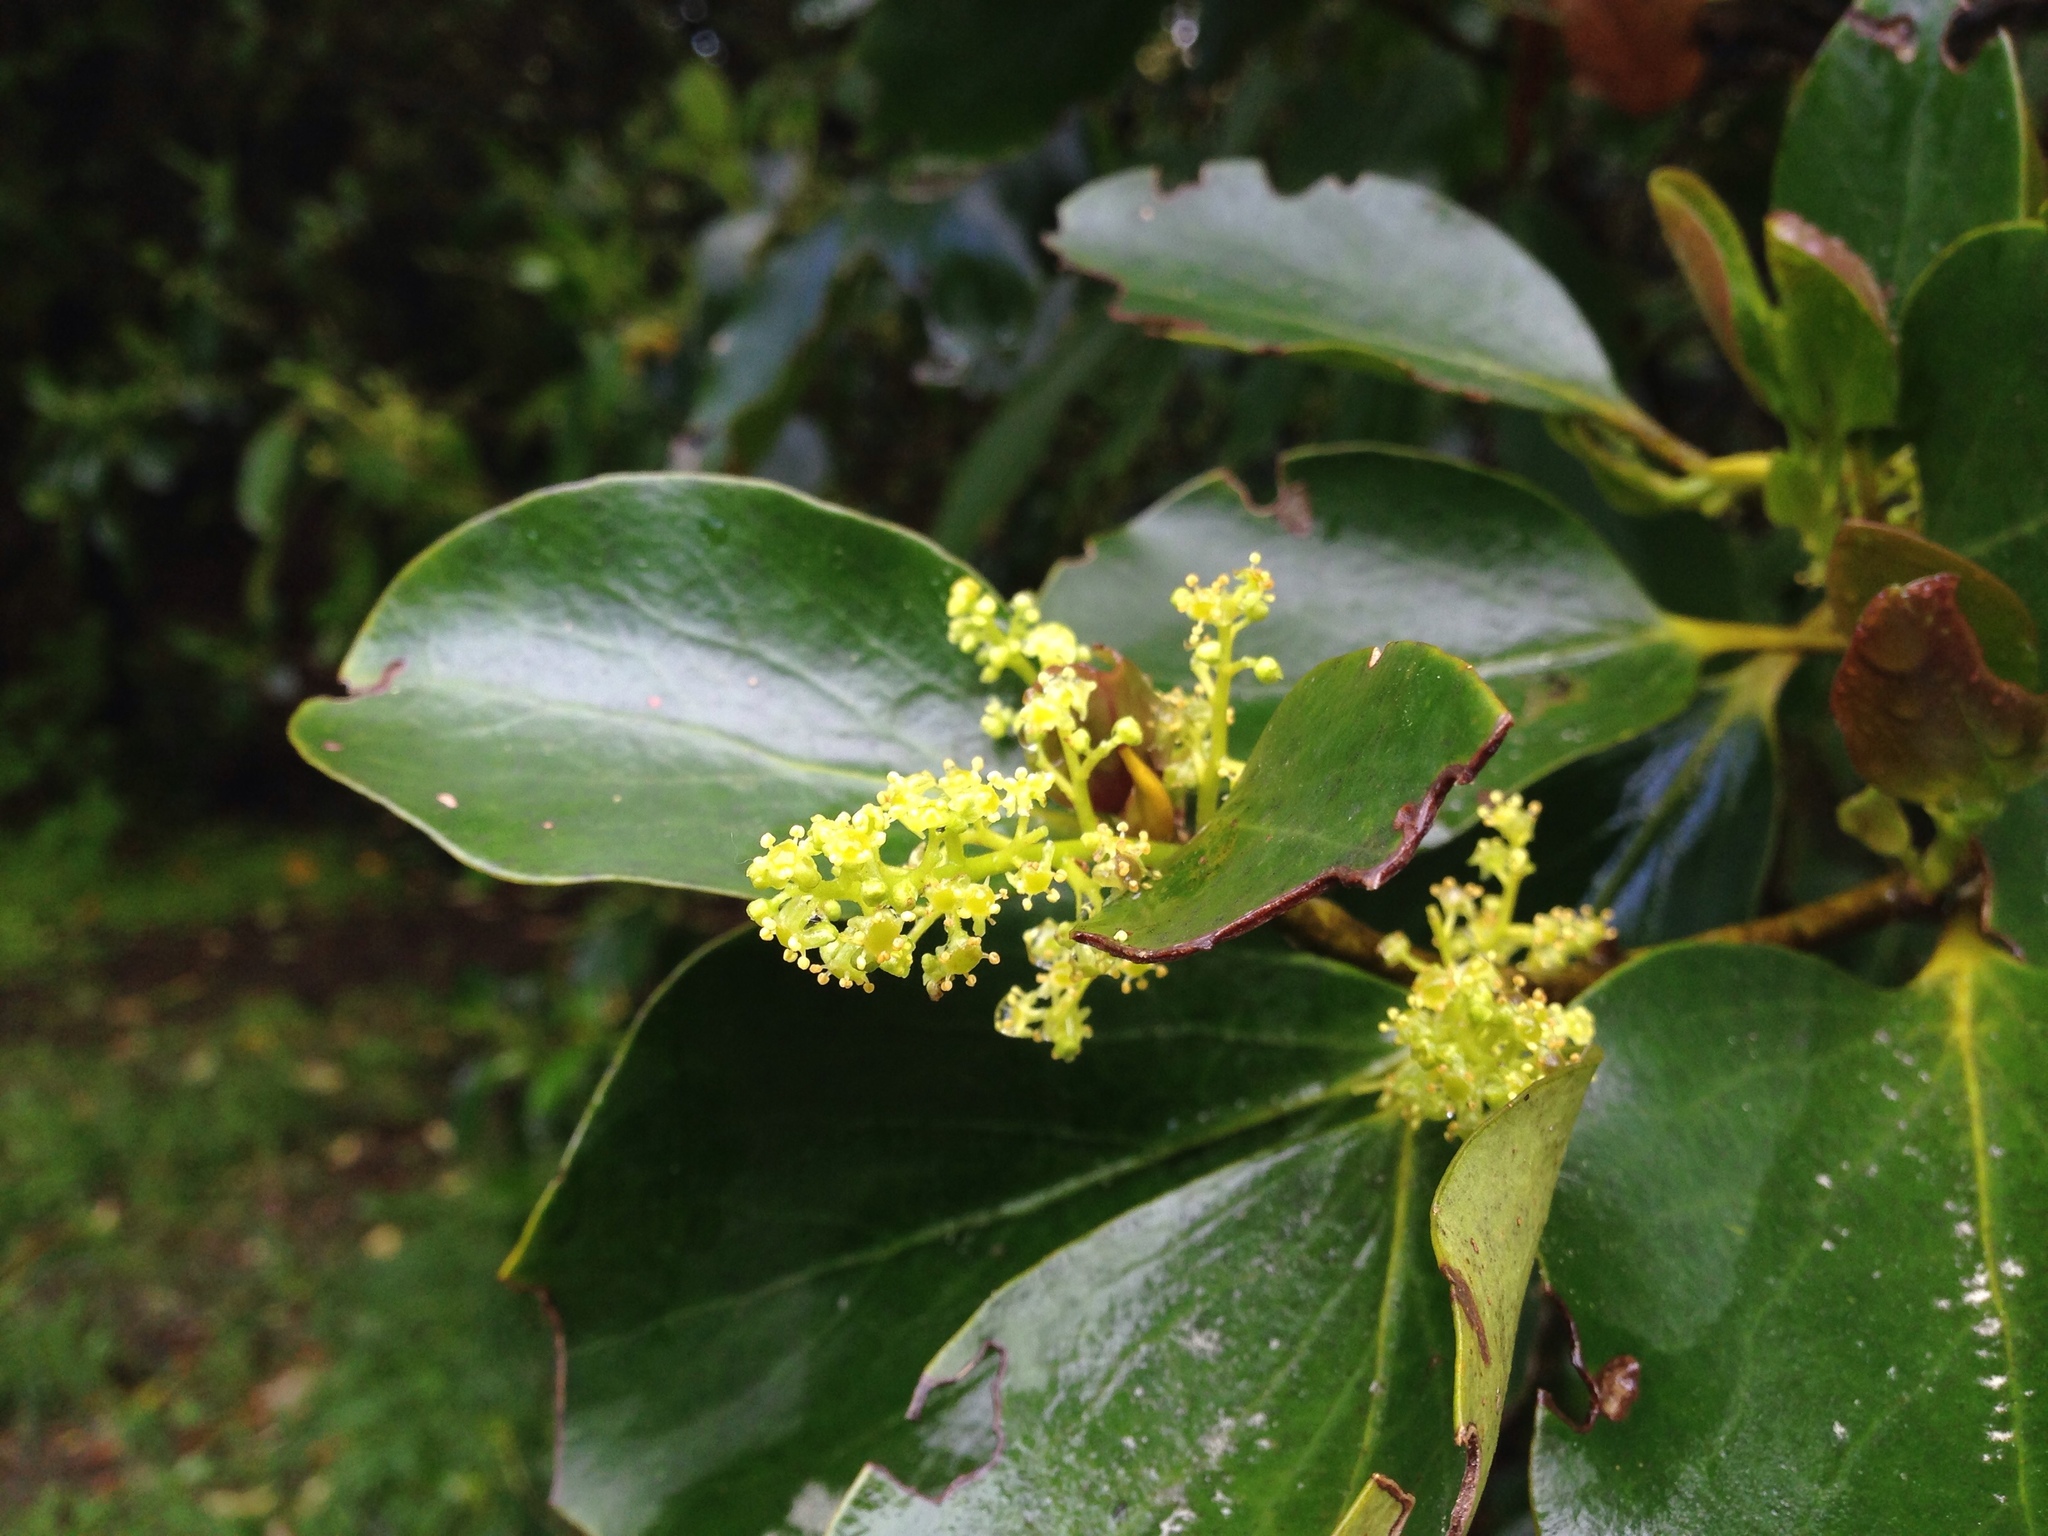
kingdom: Plantae
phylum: Tracheophyta
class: Magnoliopsida
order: Apiales
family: Griseliniaceae
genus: Griselinia
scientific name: Griselinia littoralis
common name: New zealand broadleaf
